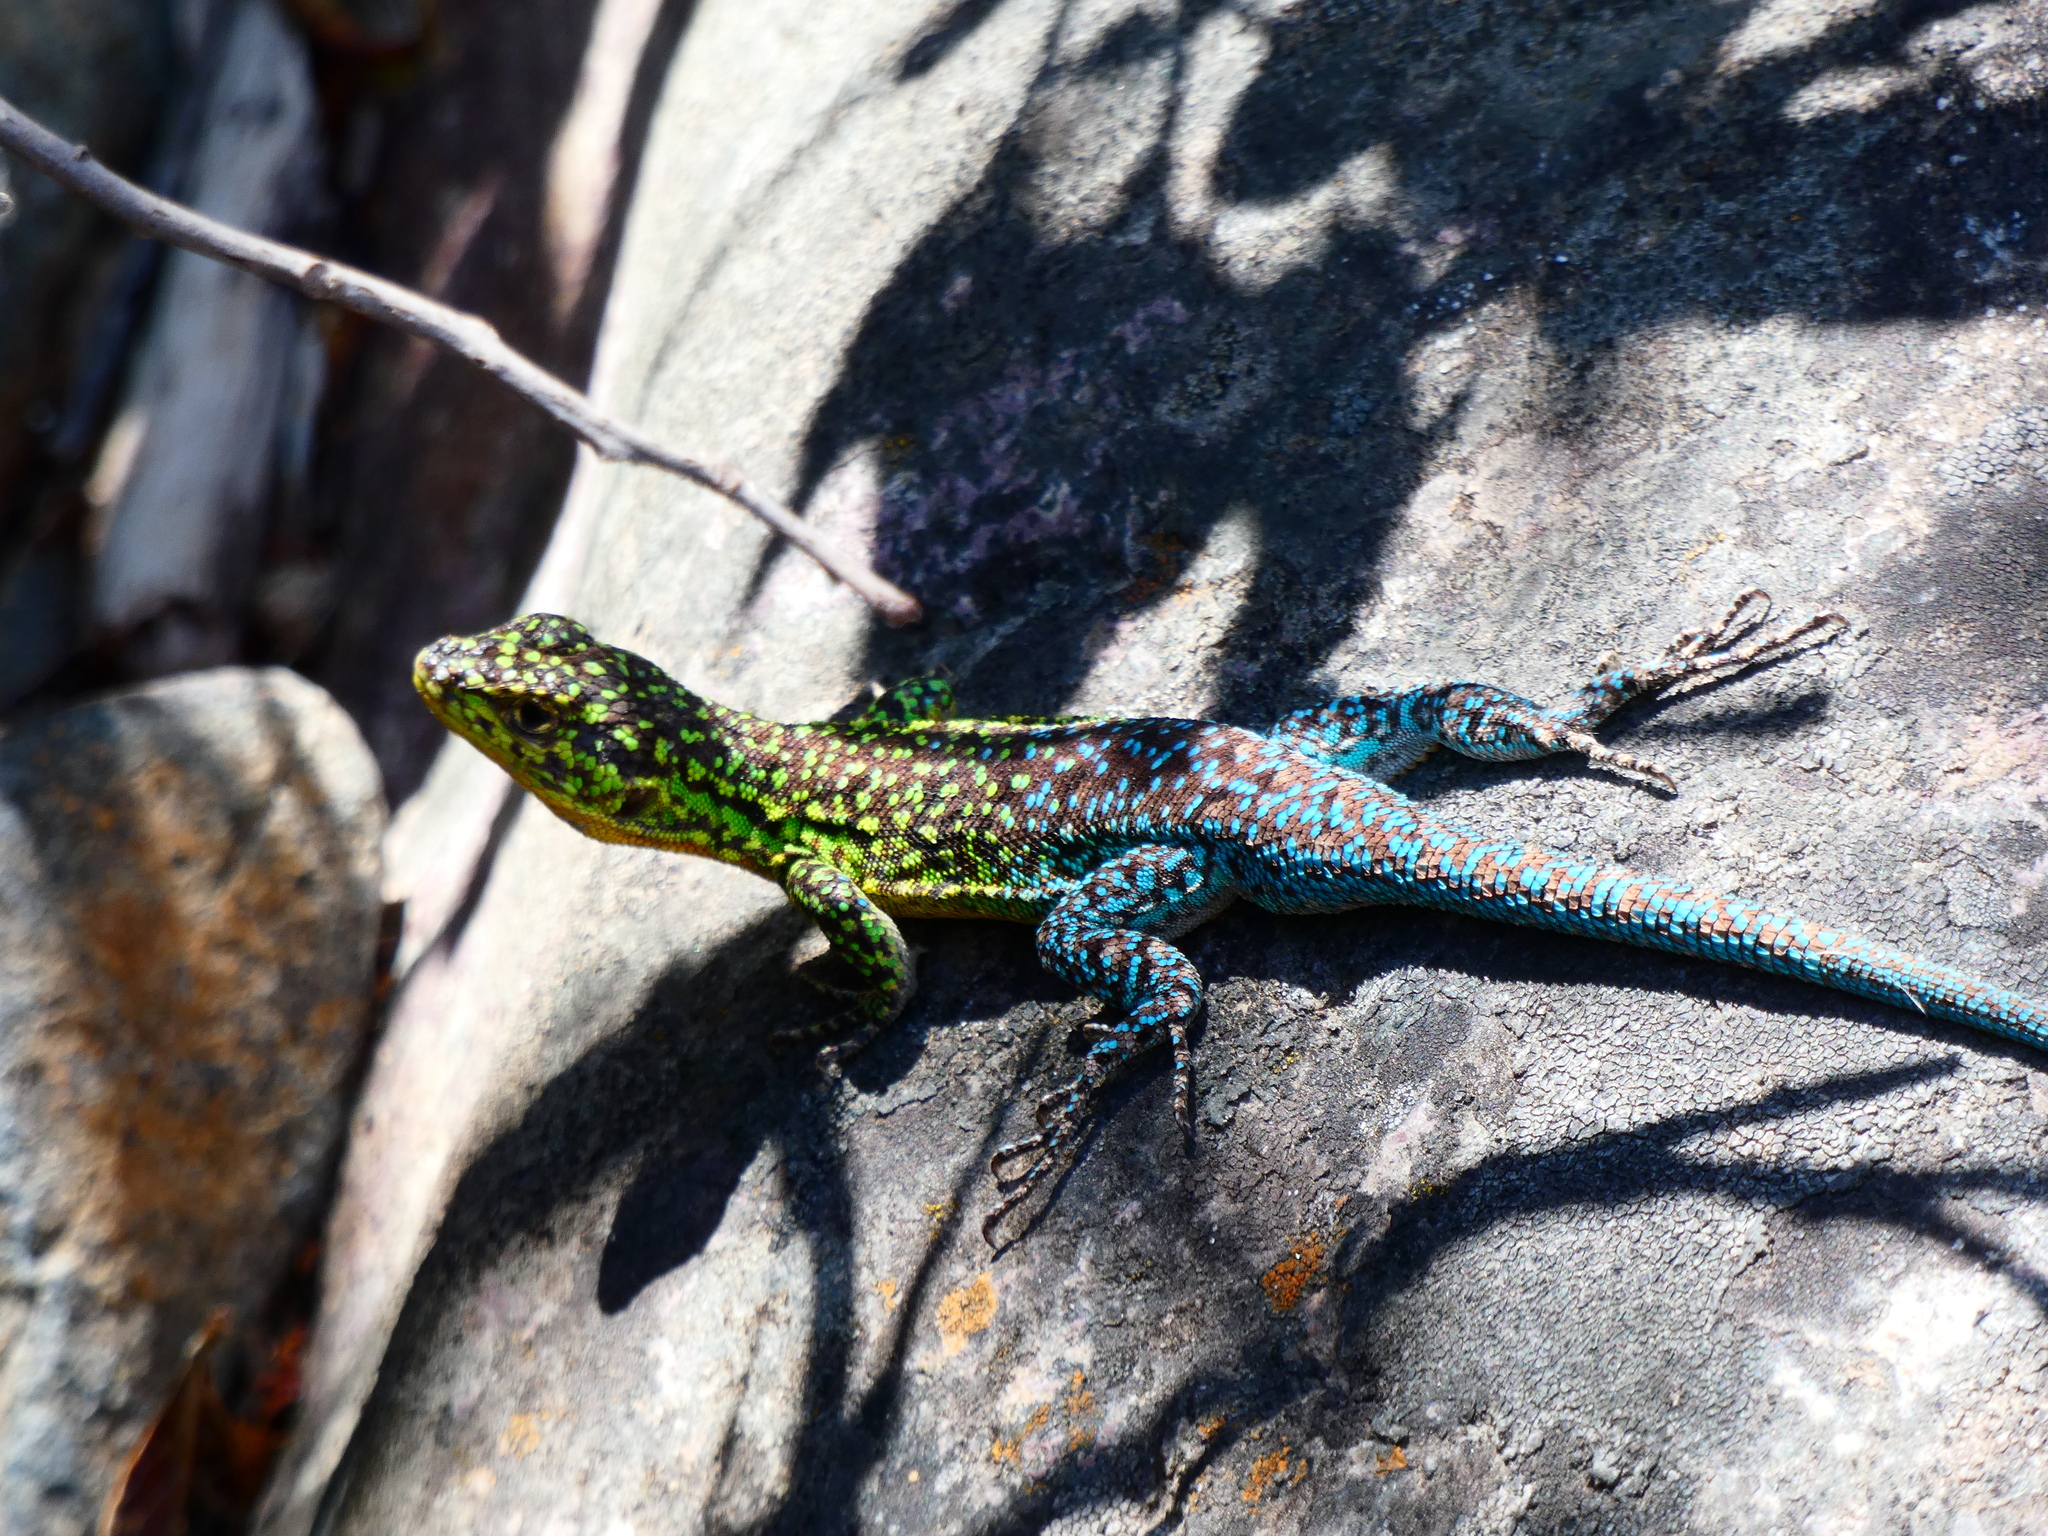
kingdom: Animalia
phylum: Chordata
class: Squamata
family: Liolaemidae
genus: Liolaemus
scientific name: Liolaemus tenuis
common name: Thin tree iguana
